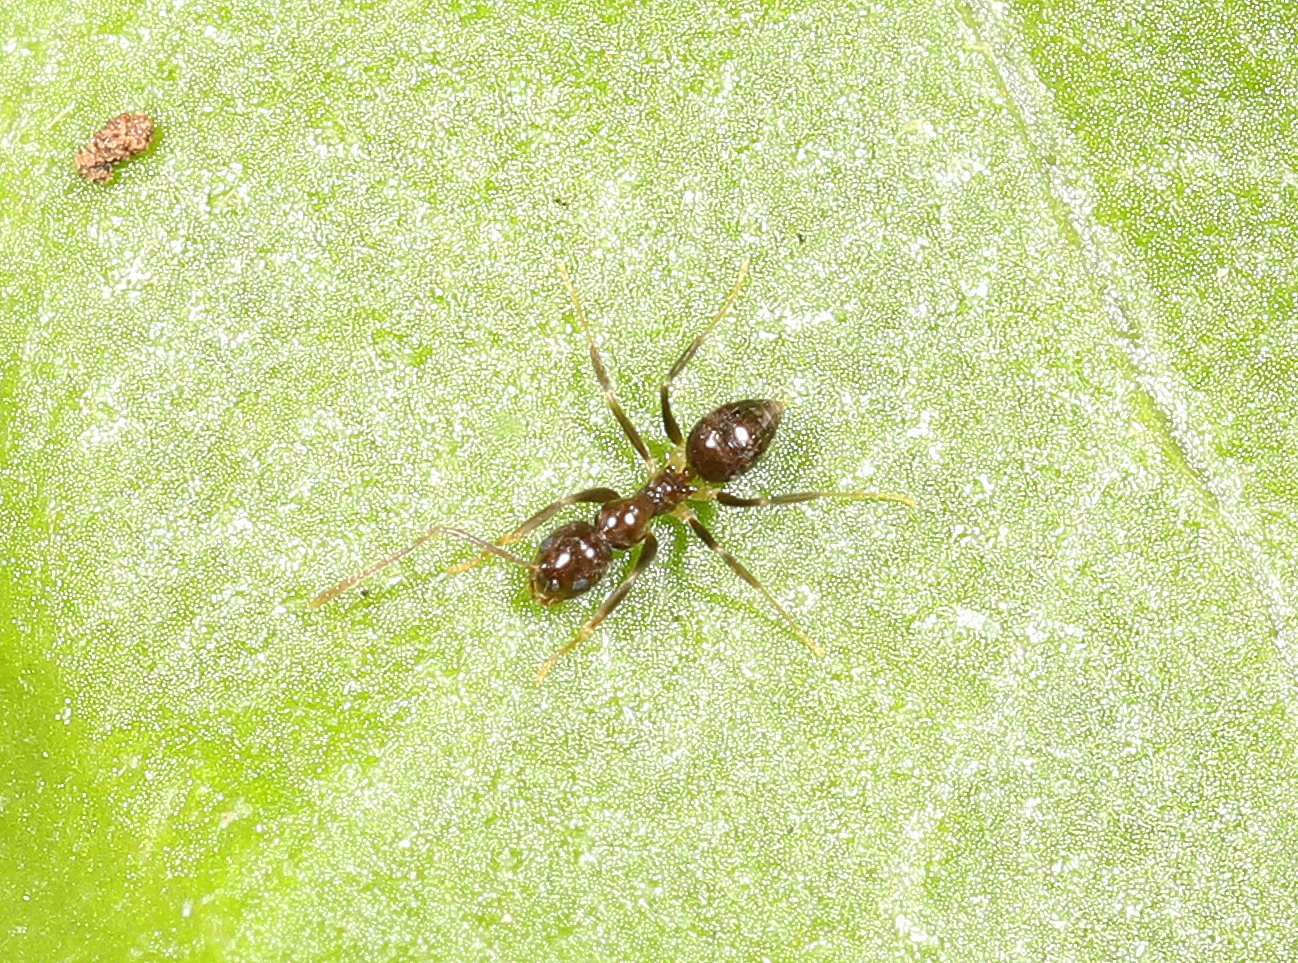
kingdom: Animalia
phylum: Arthropoda
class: Insecta
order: Hymenoptera
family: Formicidae
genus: Nylanderia
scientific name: Nylanderia steinheili
